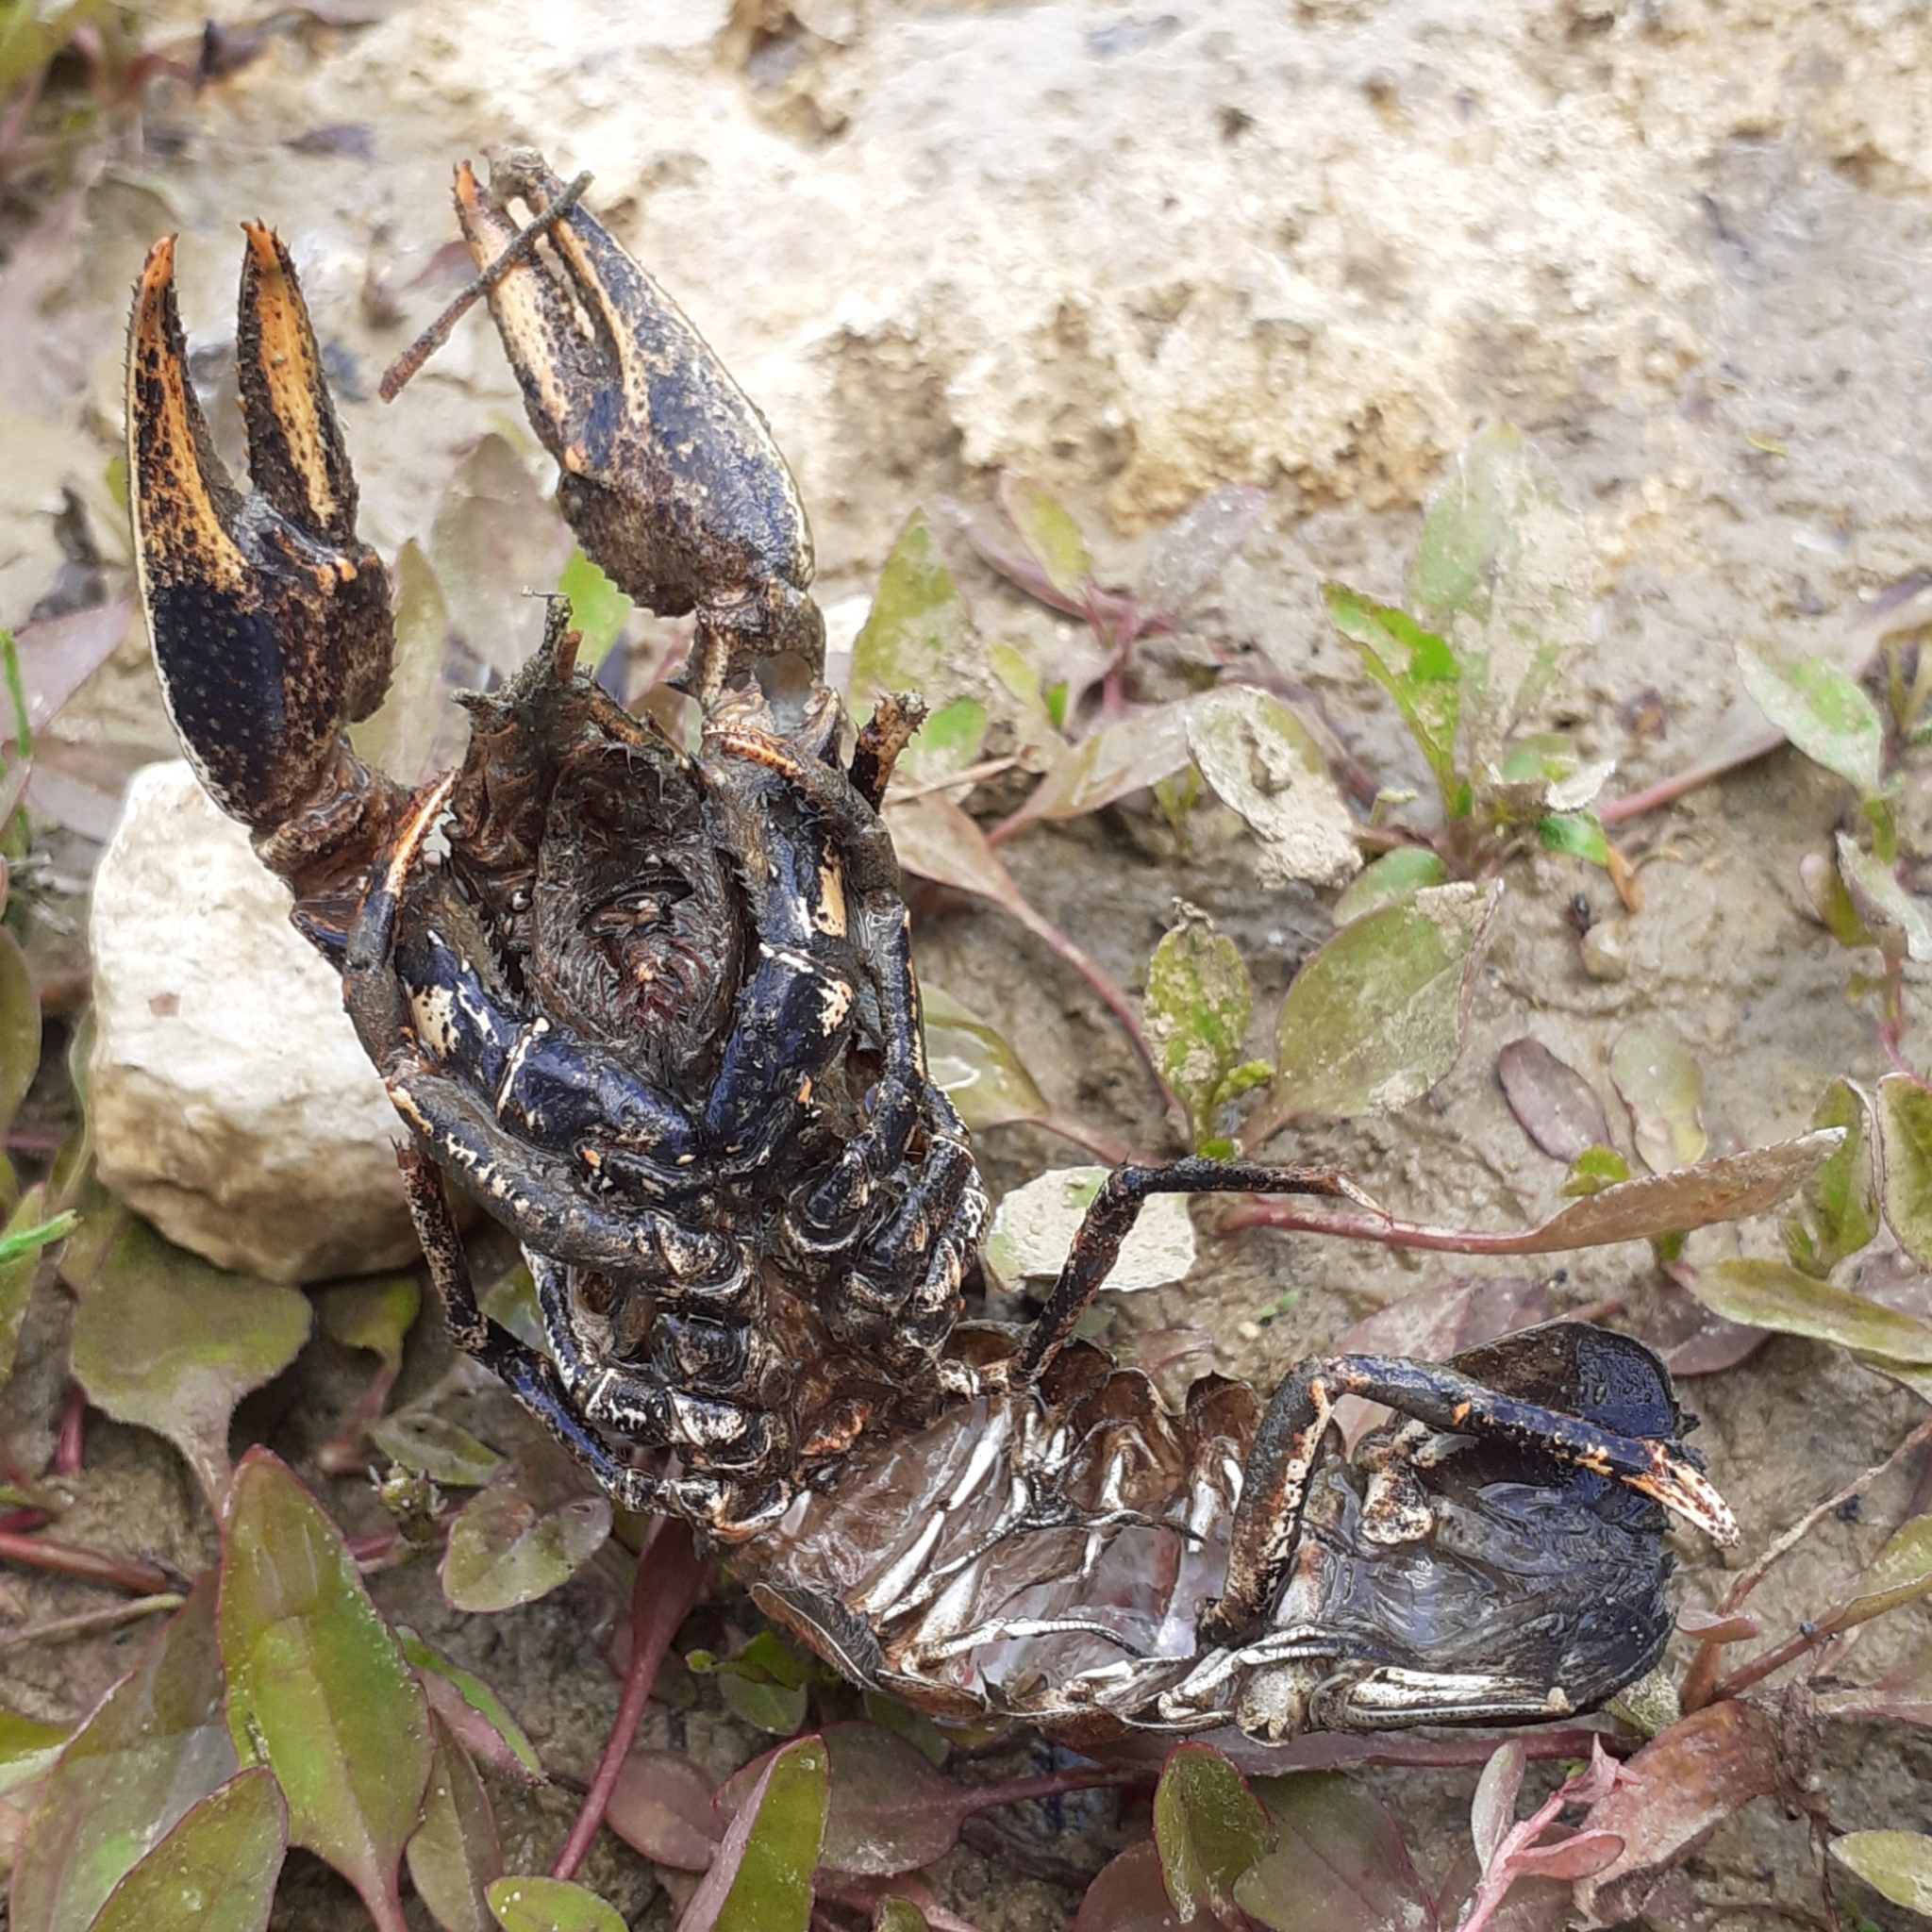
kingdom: Animalia
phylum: Arthropoda
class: Malacostraca
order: Decapoda
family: Cambaridae
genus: Faxonius
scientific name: Faxonius limosus
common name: American crayfish
